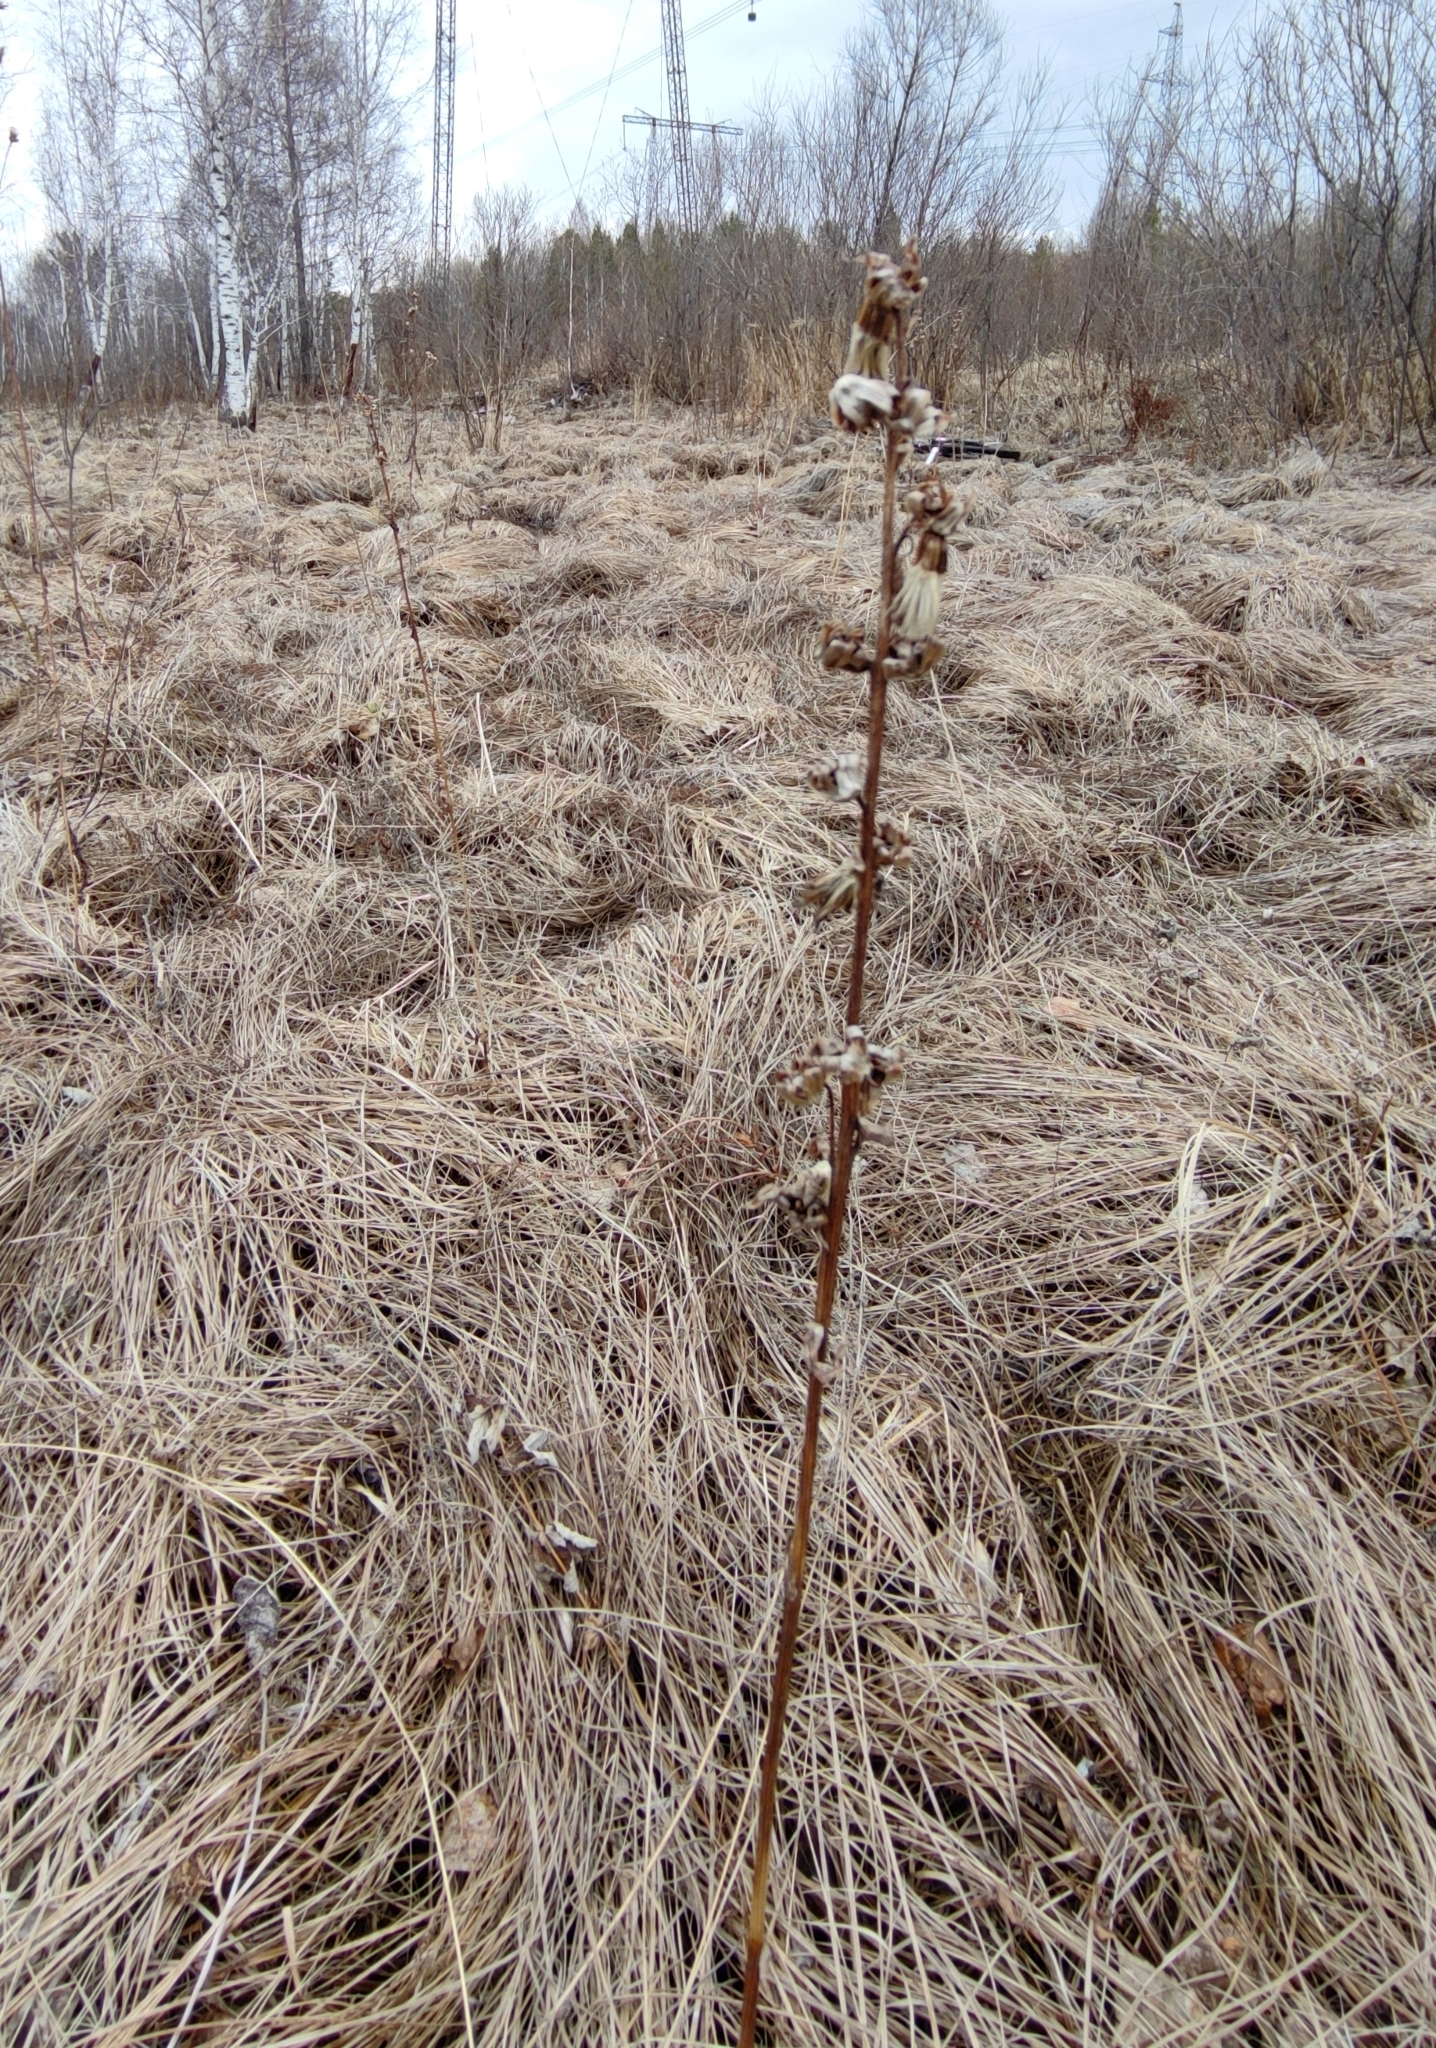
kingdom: Plantae
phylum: Tracheophyta
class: Magnoliopsida
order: Asterales
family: Asteraceae
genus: Ligularia
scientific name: Ligularia sibirica
